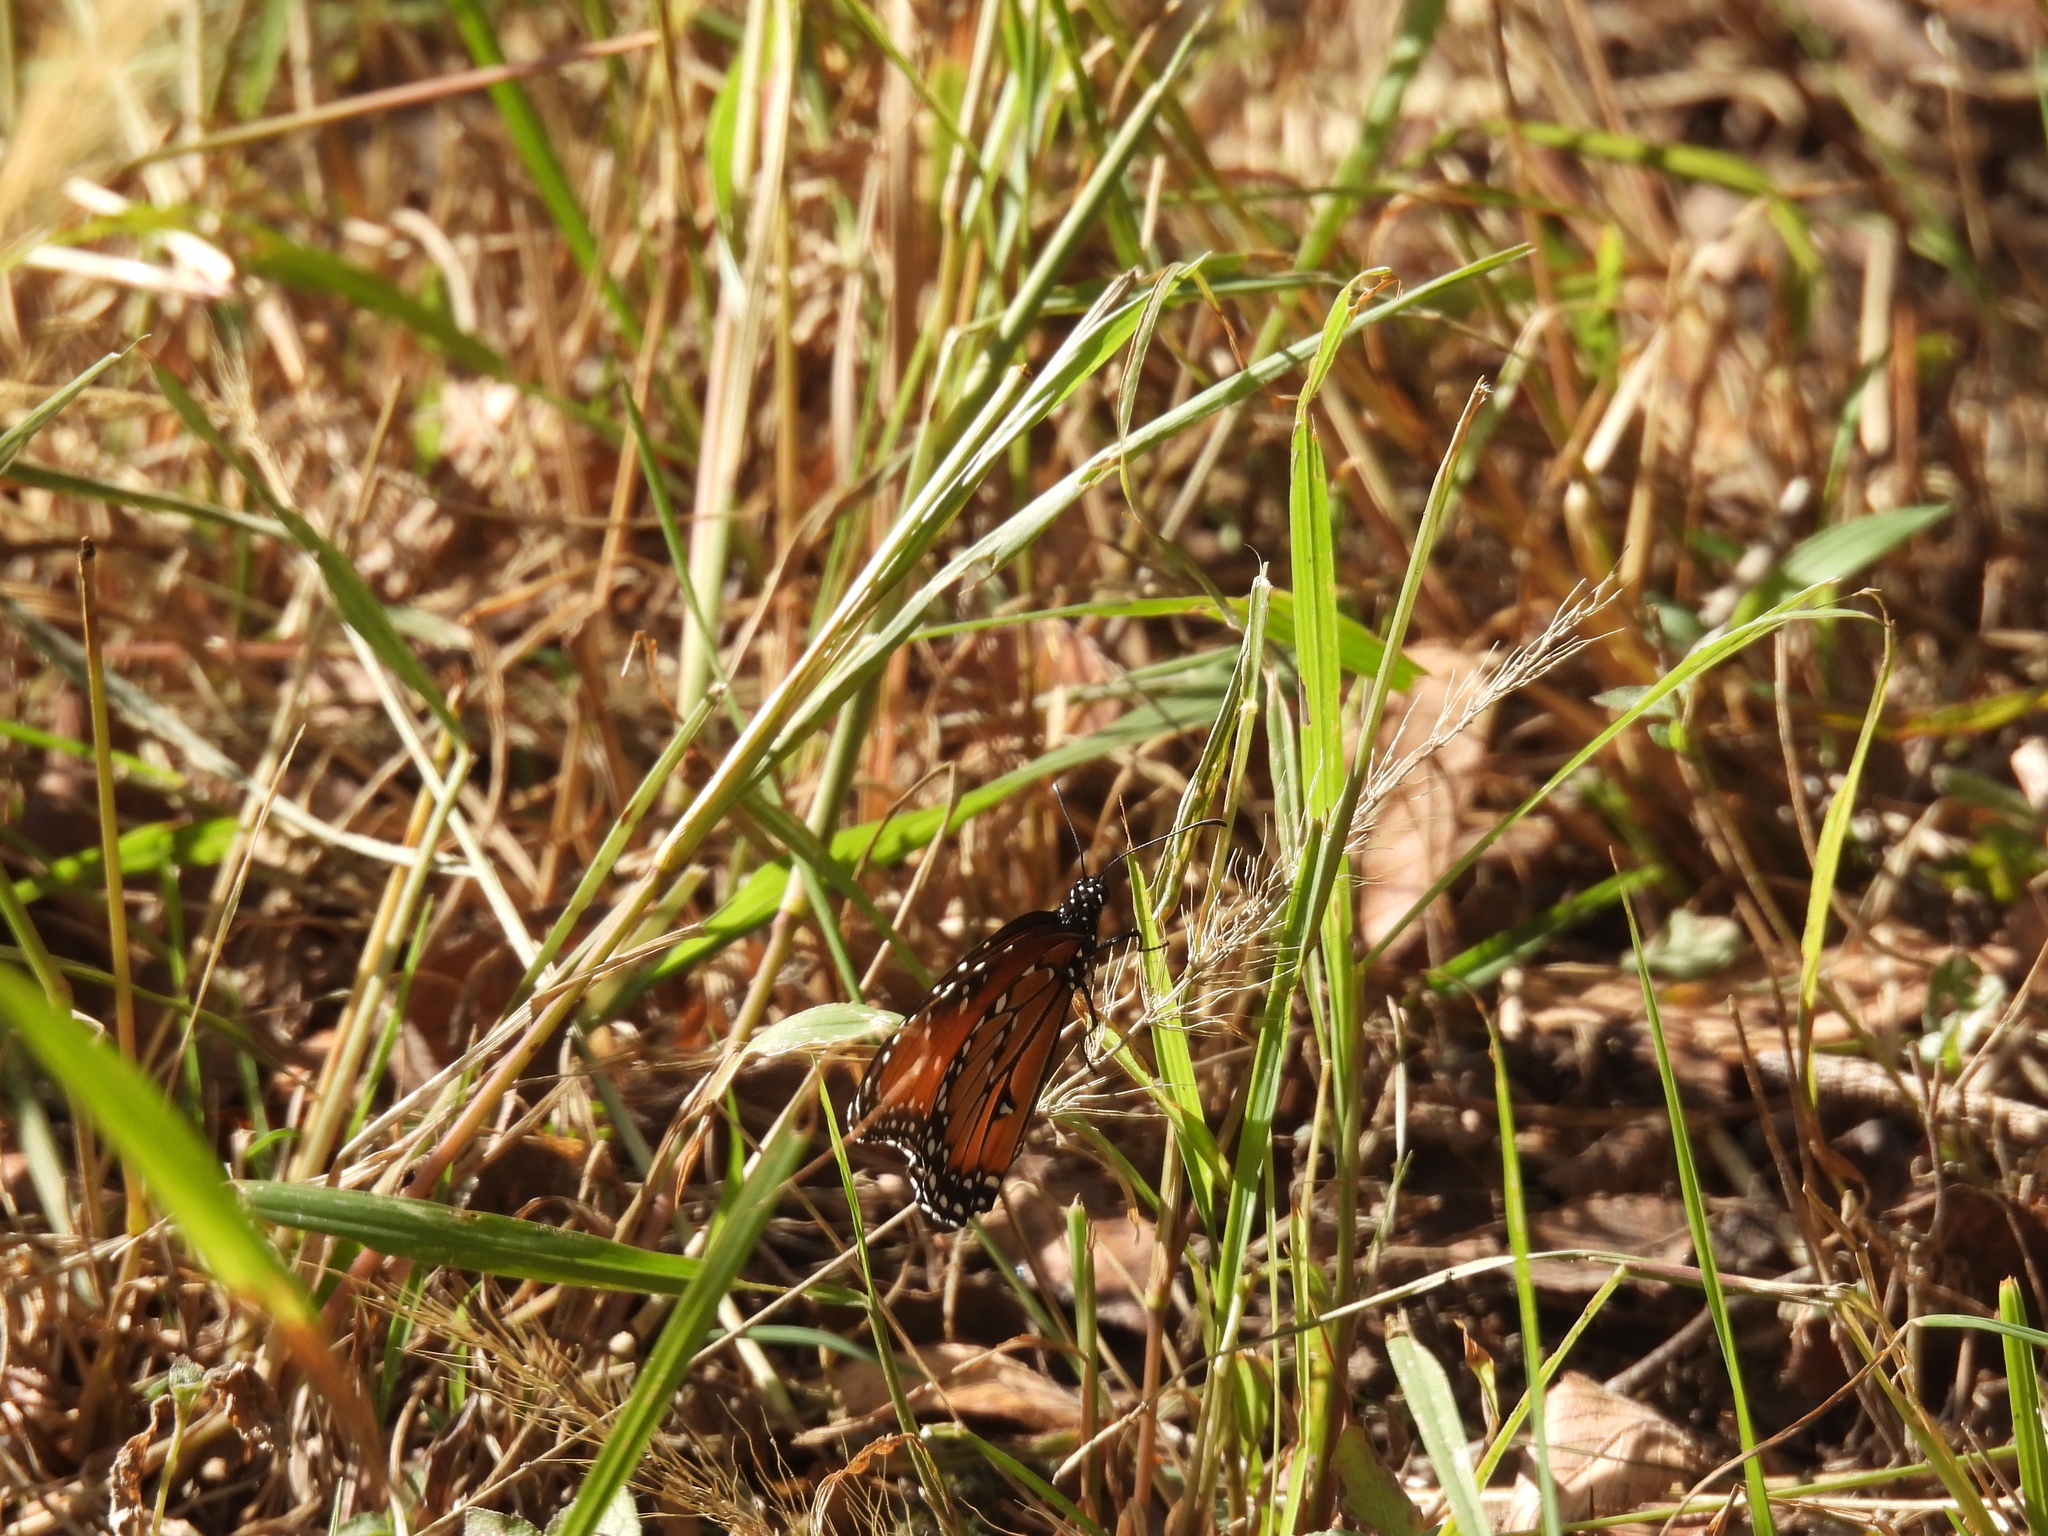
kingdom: Animalia
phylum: Arthropoda
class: Insecta
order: Lepidoptera
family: Nymphalidae
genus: Danaus
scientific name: Danaus gilippus
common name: Queen
